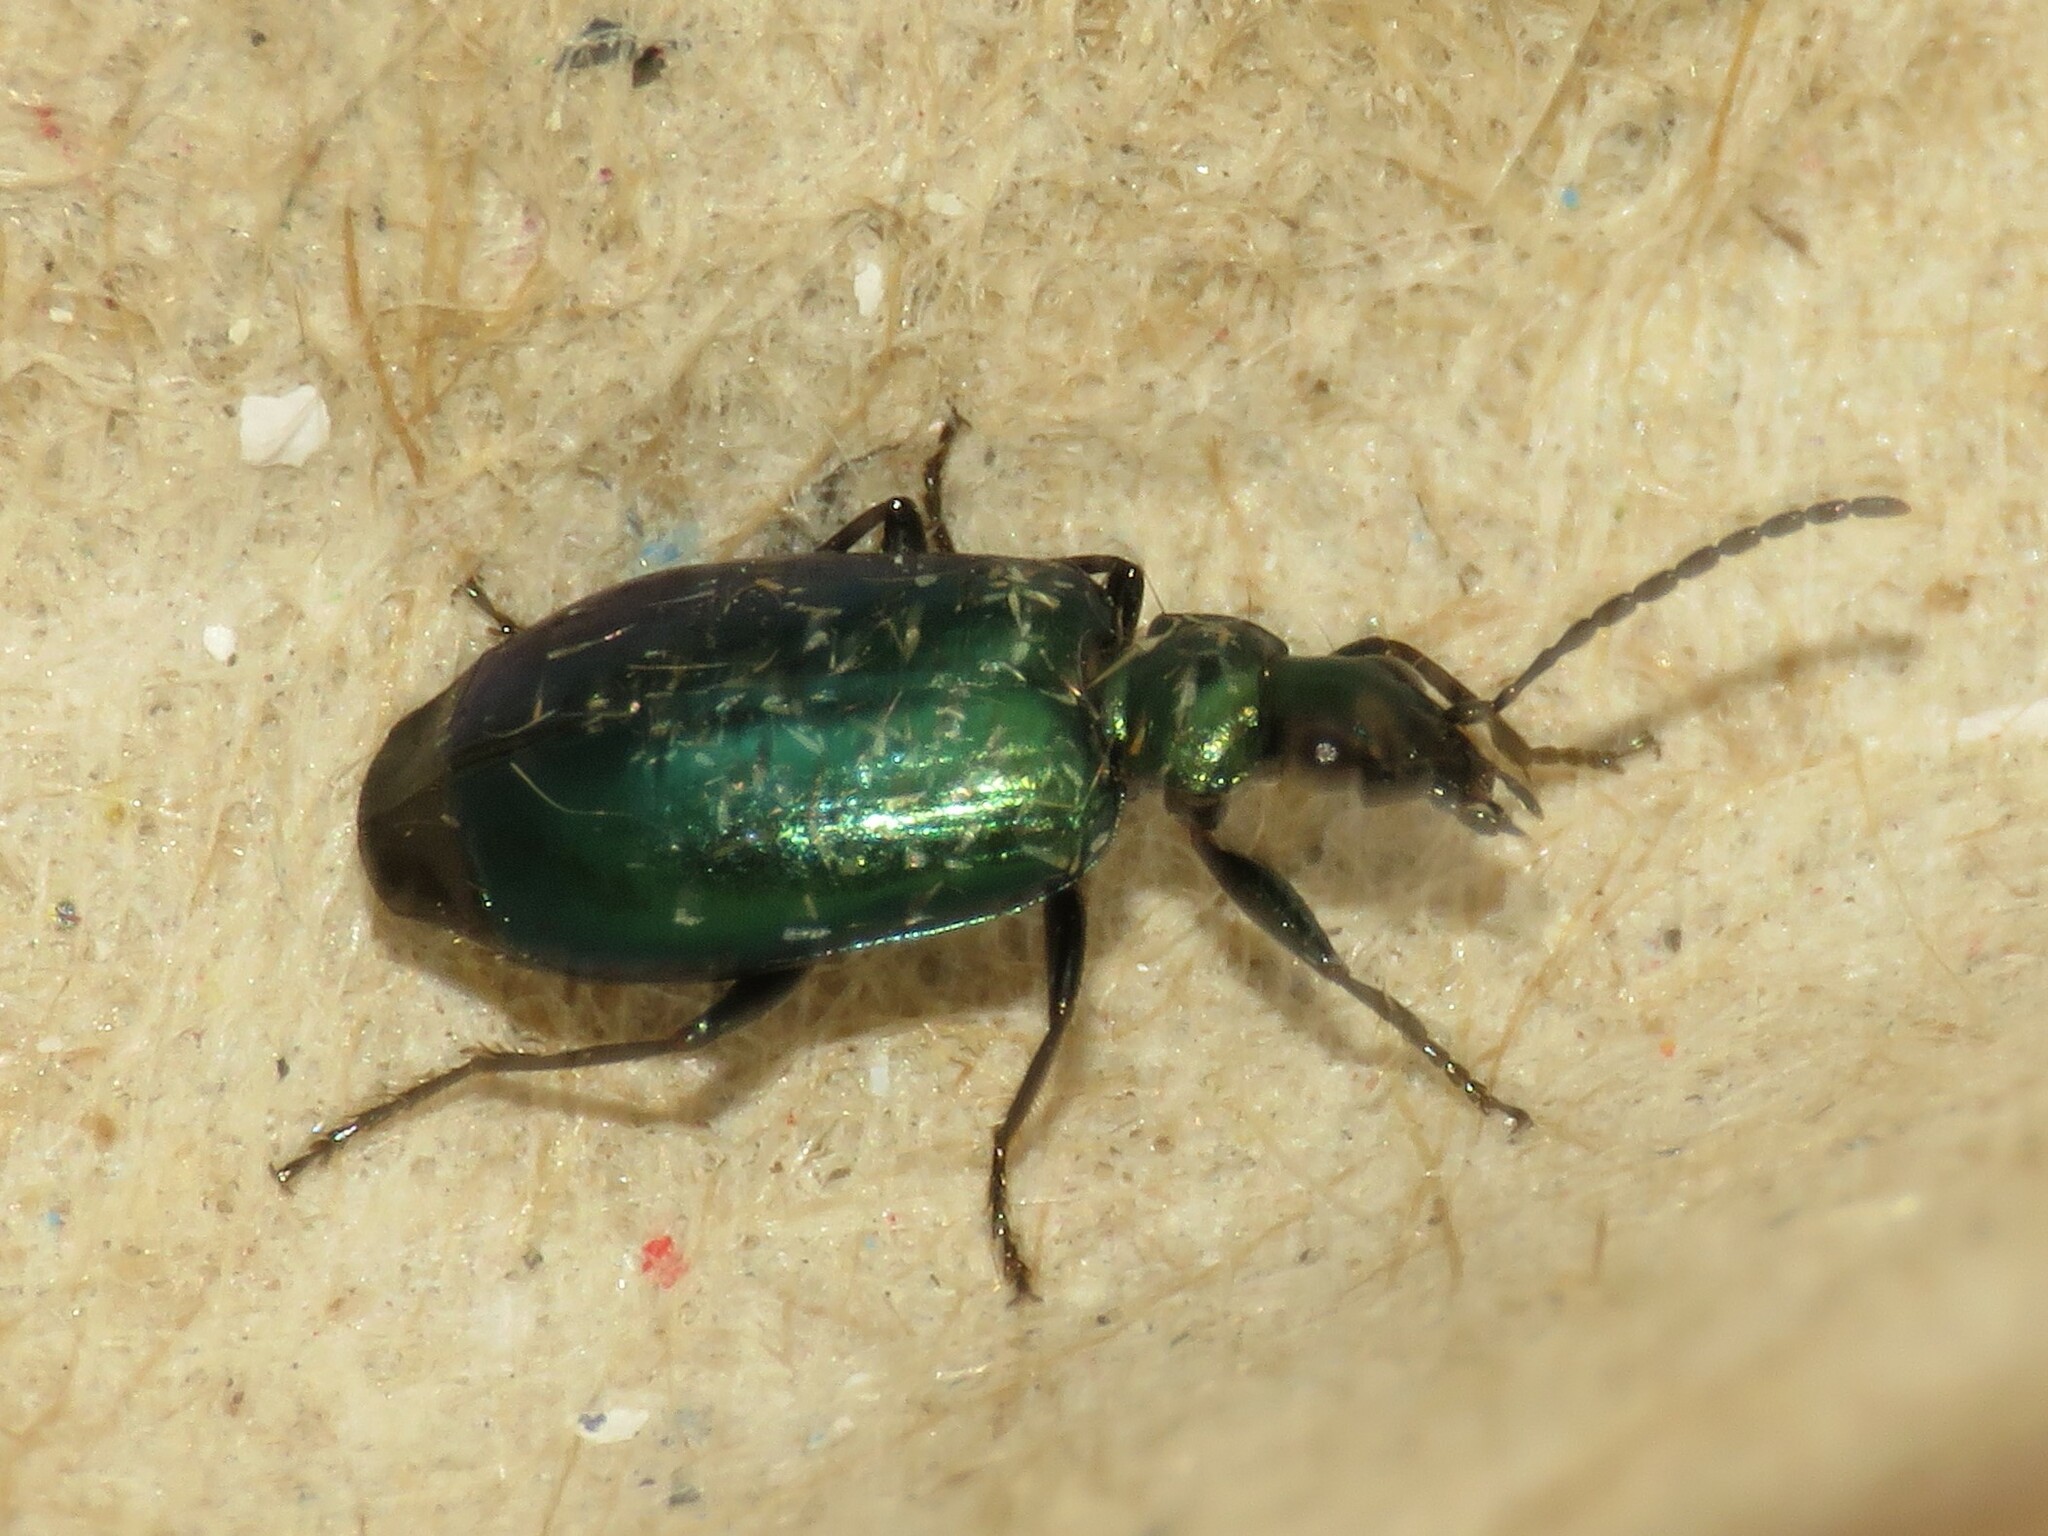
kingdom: Animalia
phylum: Arthropoda
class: Insecta
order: Coleoptera
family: Carabidae
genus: Lebia
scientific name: Lebia viridis
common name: Flower lebia beetle
